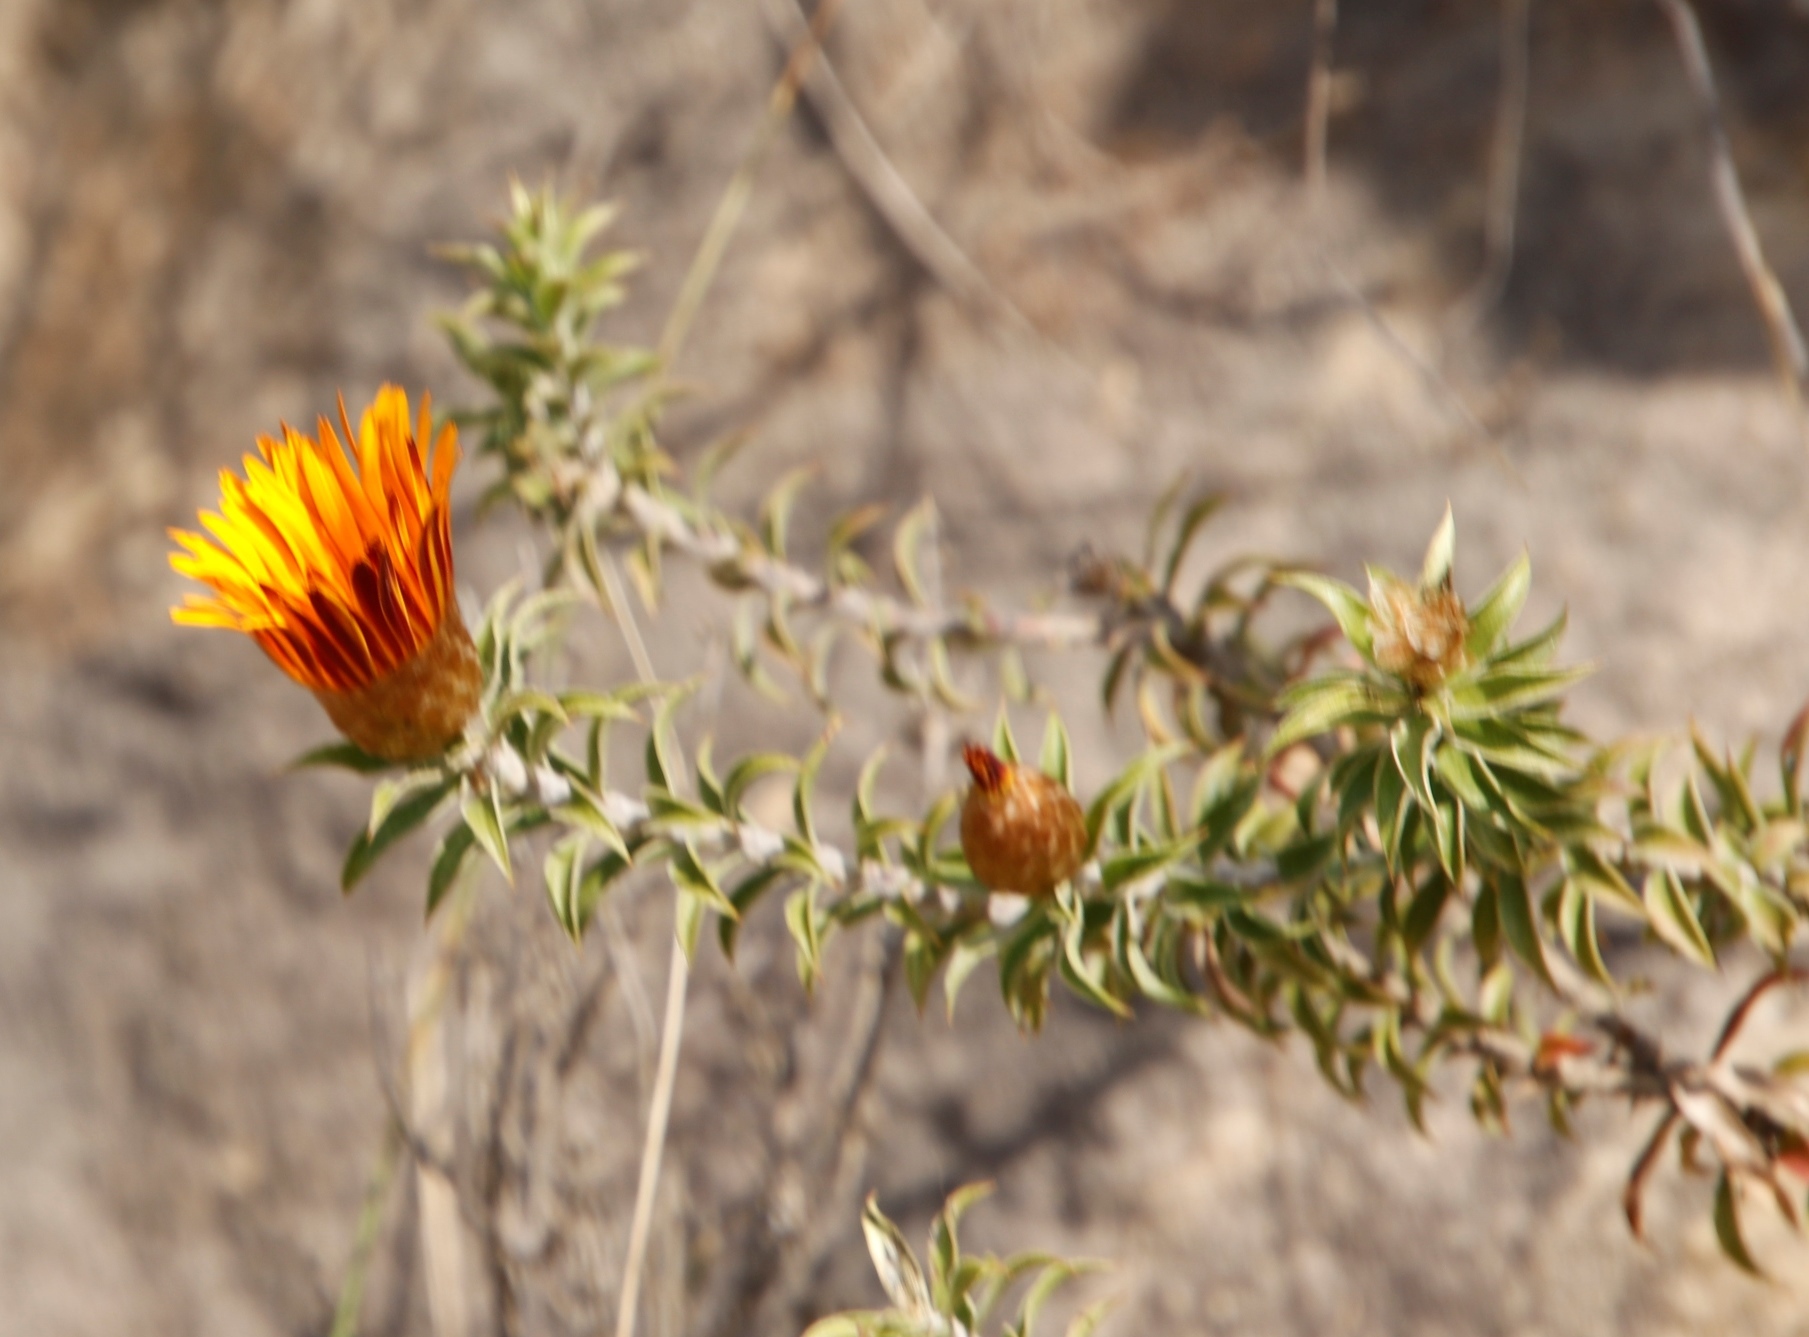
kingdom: Plantae
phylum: Tracheophyta
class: Magnoliopsida
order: Asterales
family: Asteraceae
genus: Oedera
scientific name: Oedera speciosa
